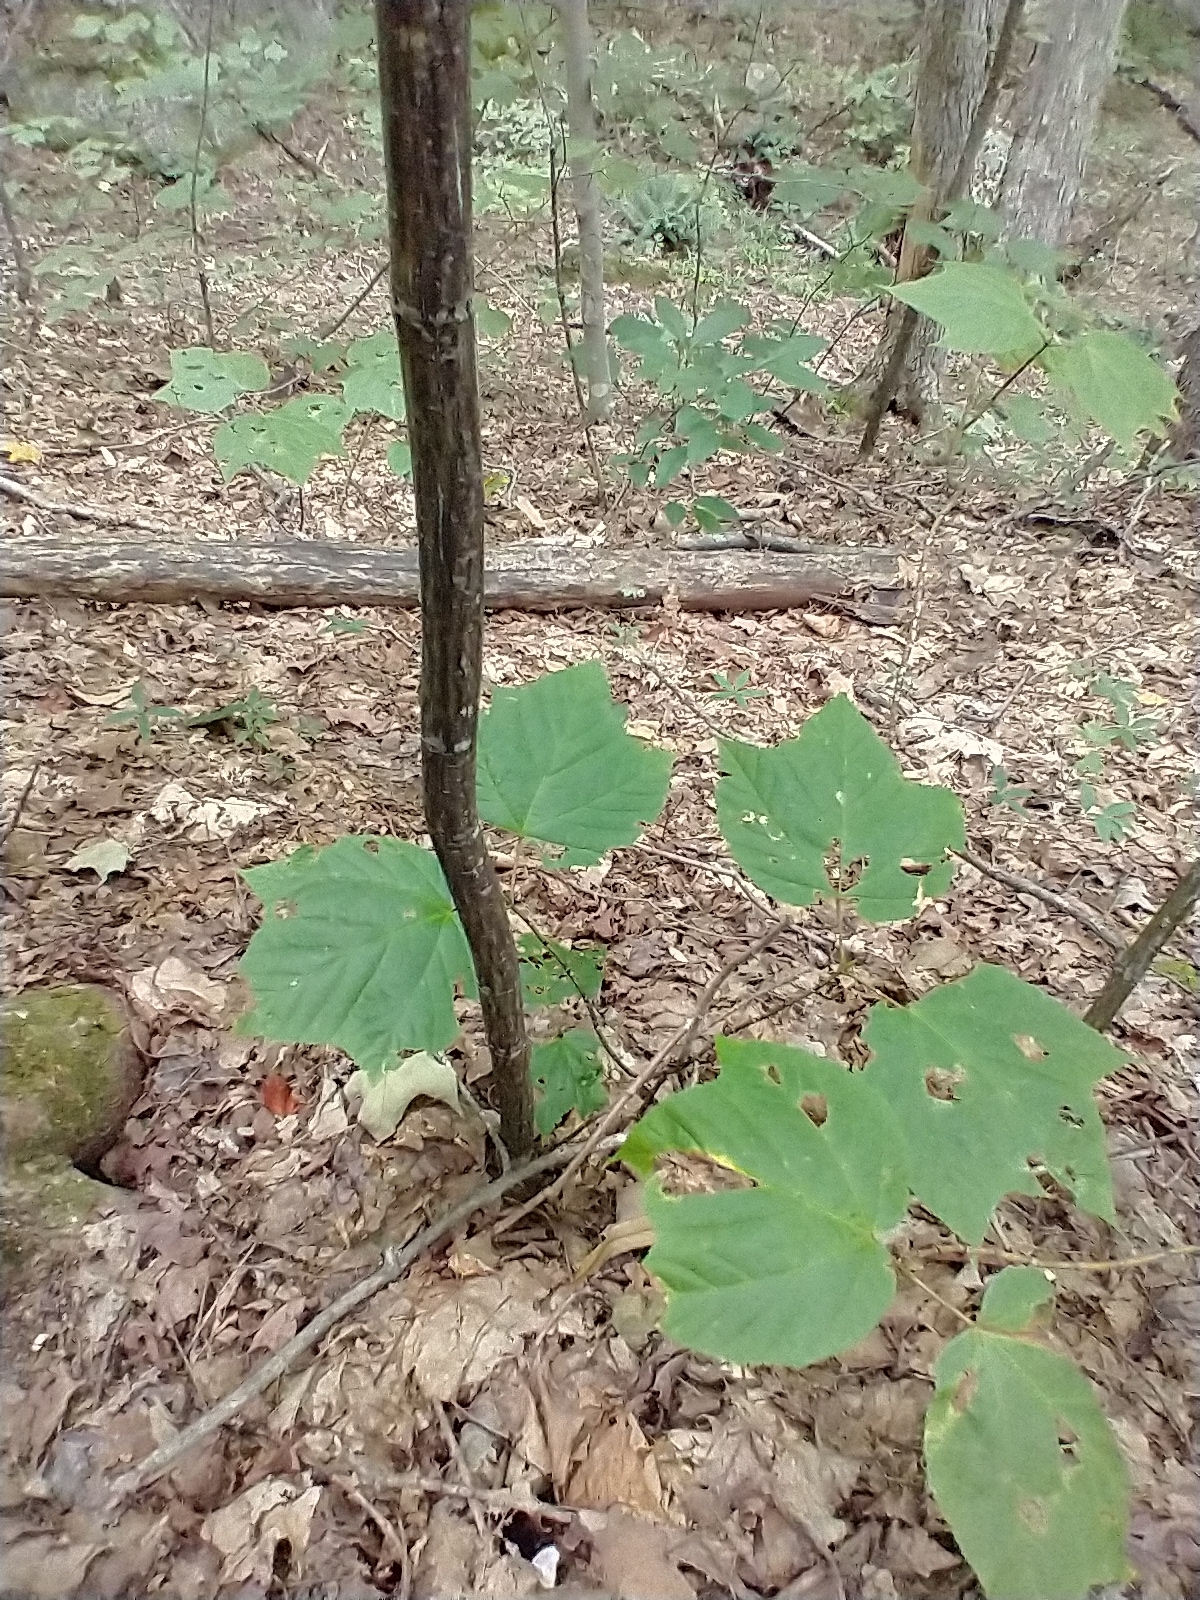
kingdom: Plantae
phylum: Tracheophyta
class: Magnoliopsida
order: Sapindales
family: Sapindaceae
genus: Acer
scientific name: Acer pensylvanicum
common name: Moosewood
